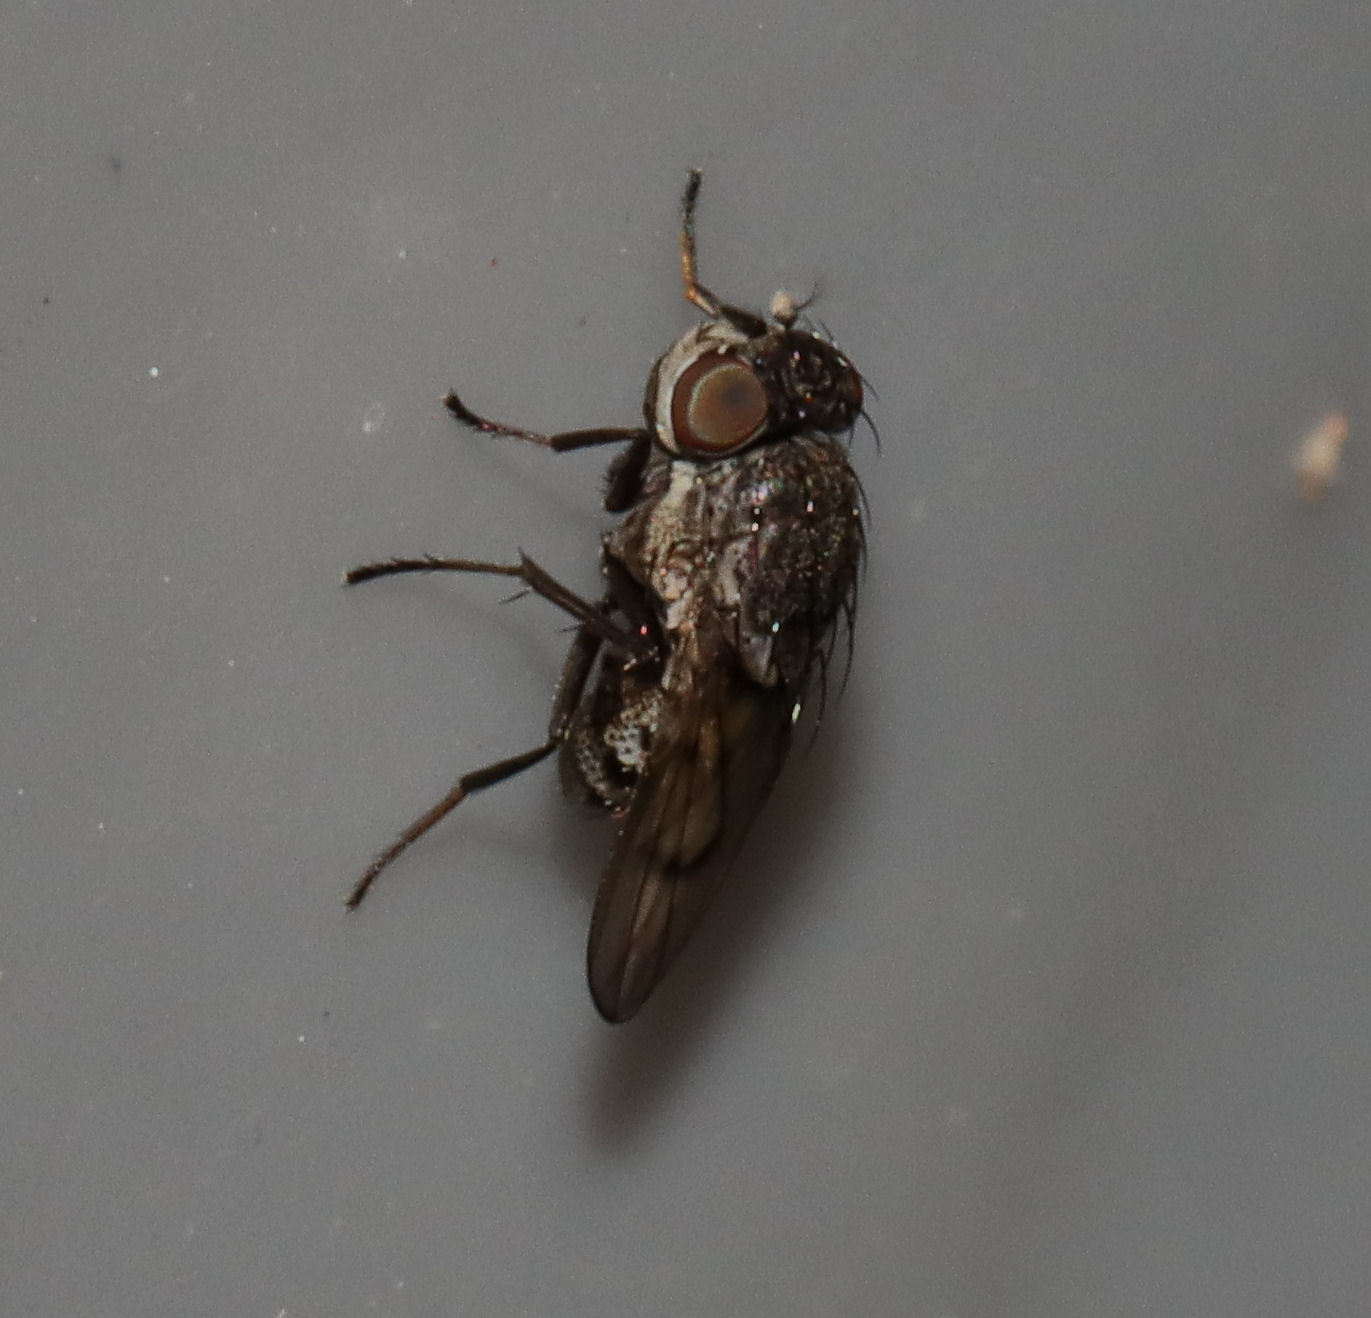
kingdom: Animalia
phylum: Arthropoda
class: Insecta
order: Diptera
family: Ephydridae
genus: Paralimna
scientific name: Paralimna punctipennis
